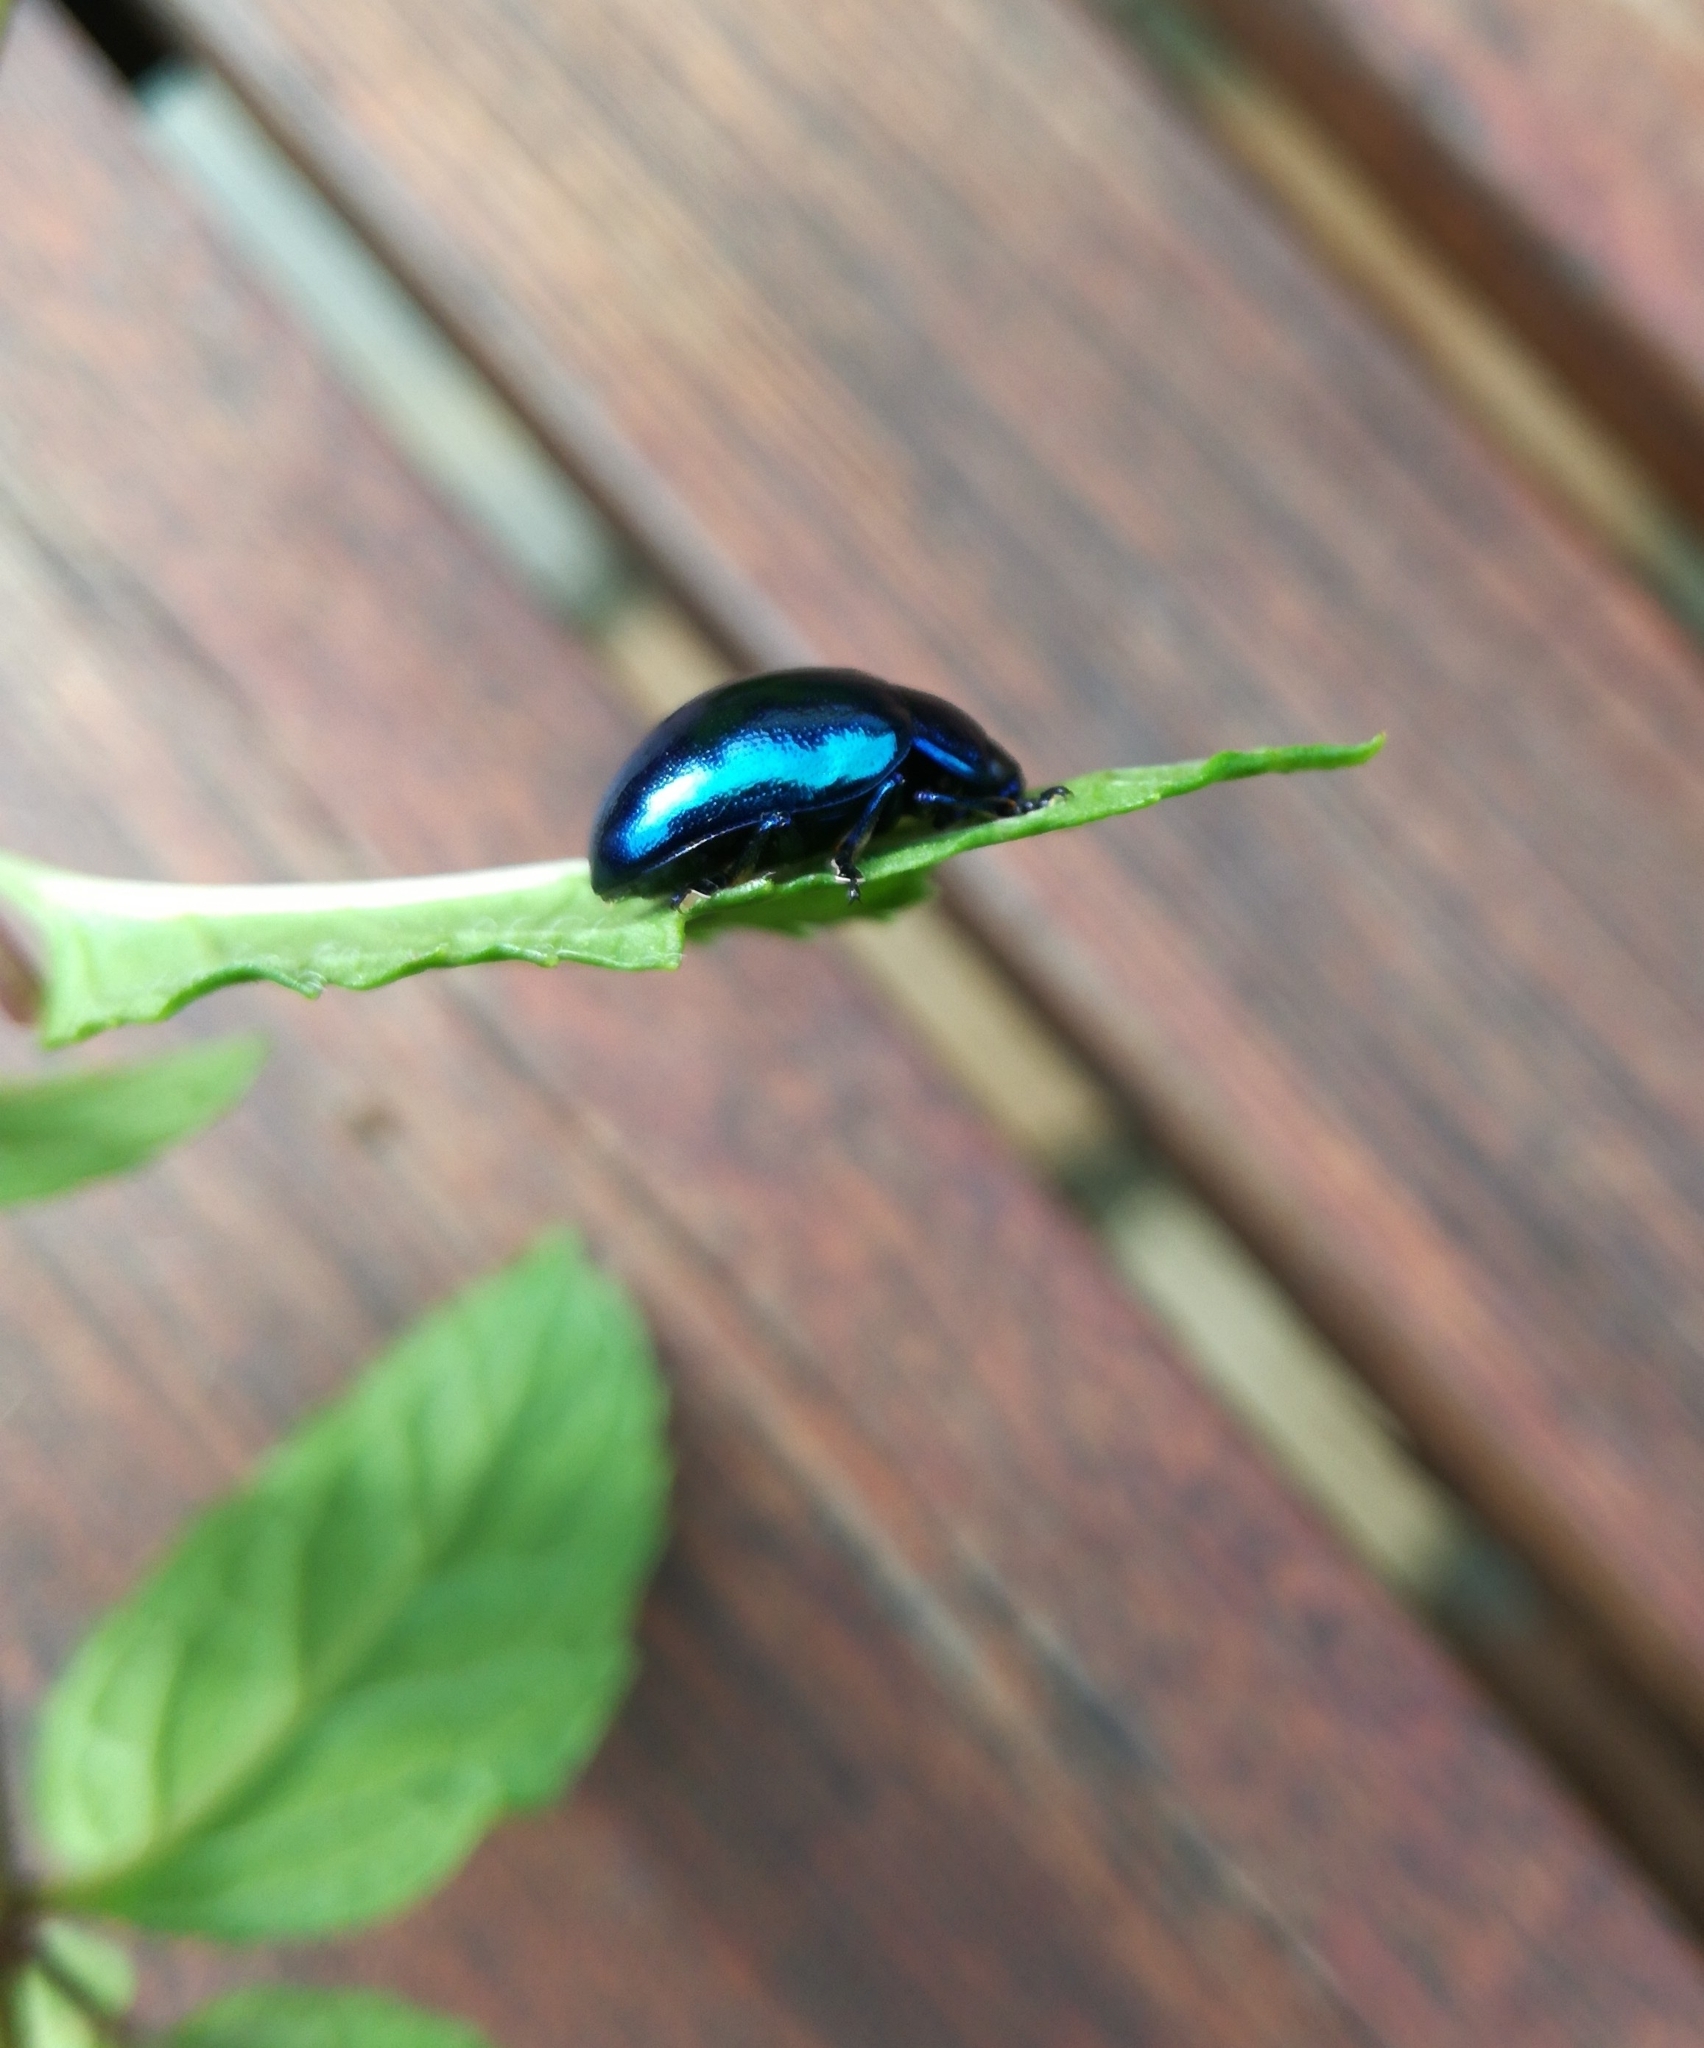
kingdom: Animalia
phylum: Arthropoda
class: Insecta
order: Coleoptera
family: Chrysomelidae
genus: Chrysolina
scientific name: Chrysolina coerulans
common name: Blue mint beetle
